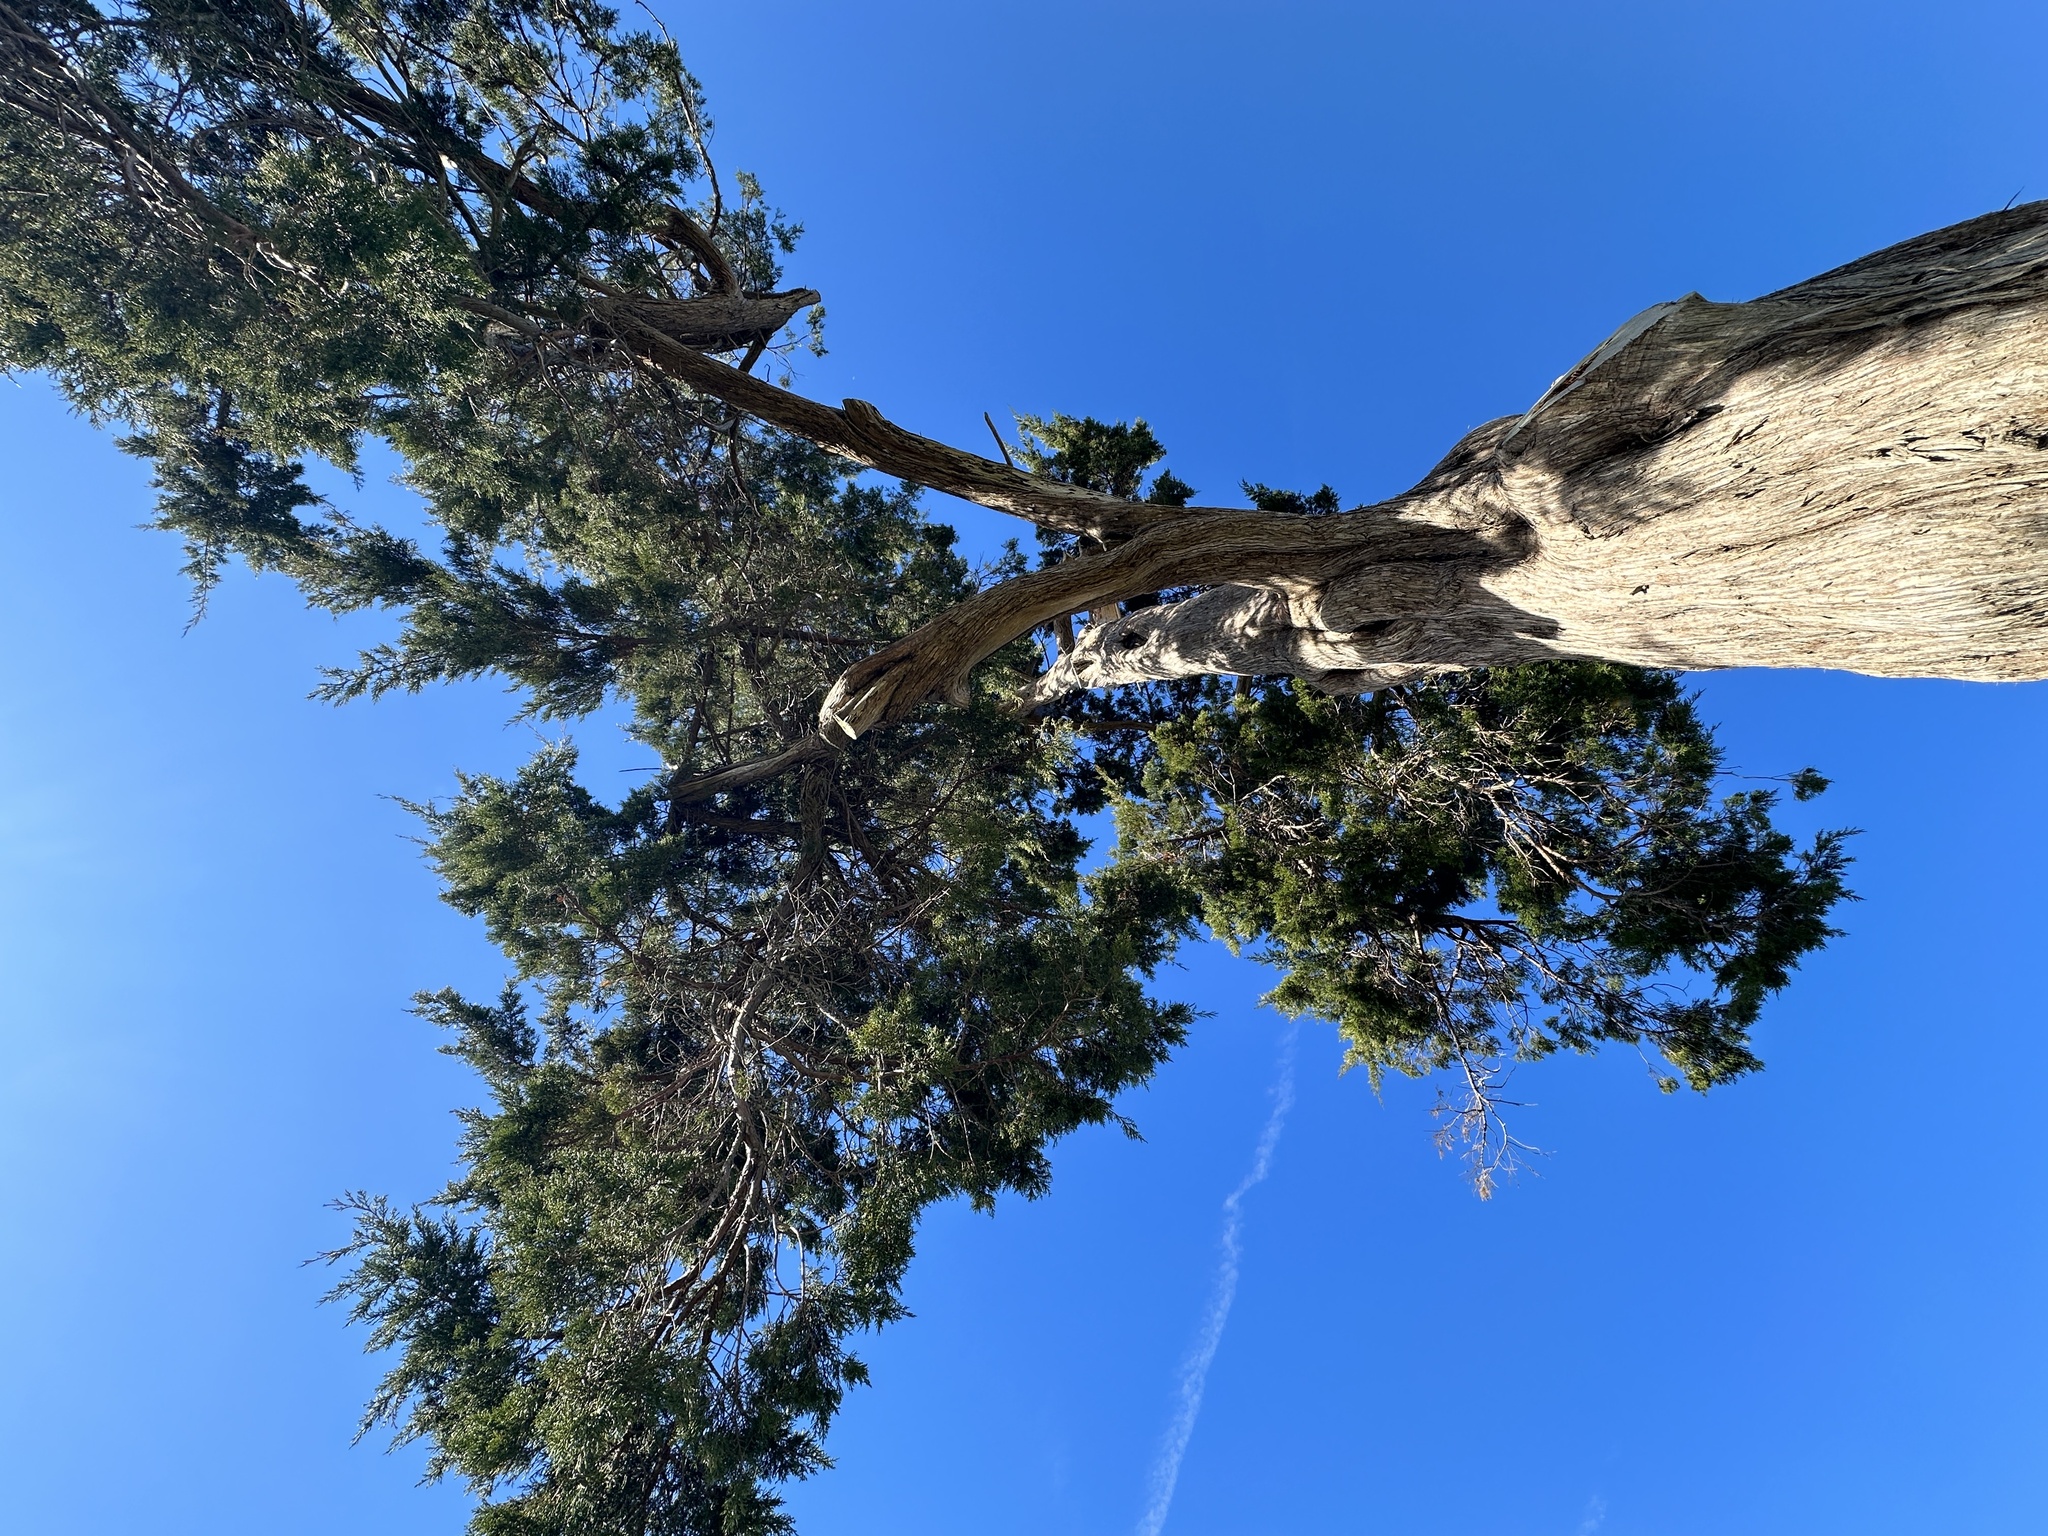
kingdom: Plantae
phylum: Tracheophyta
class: Pinopsida
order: Pinales
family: Cupressaceae
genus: Juniperus
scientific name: Juniperus virginiana
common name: Red juniper
